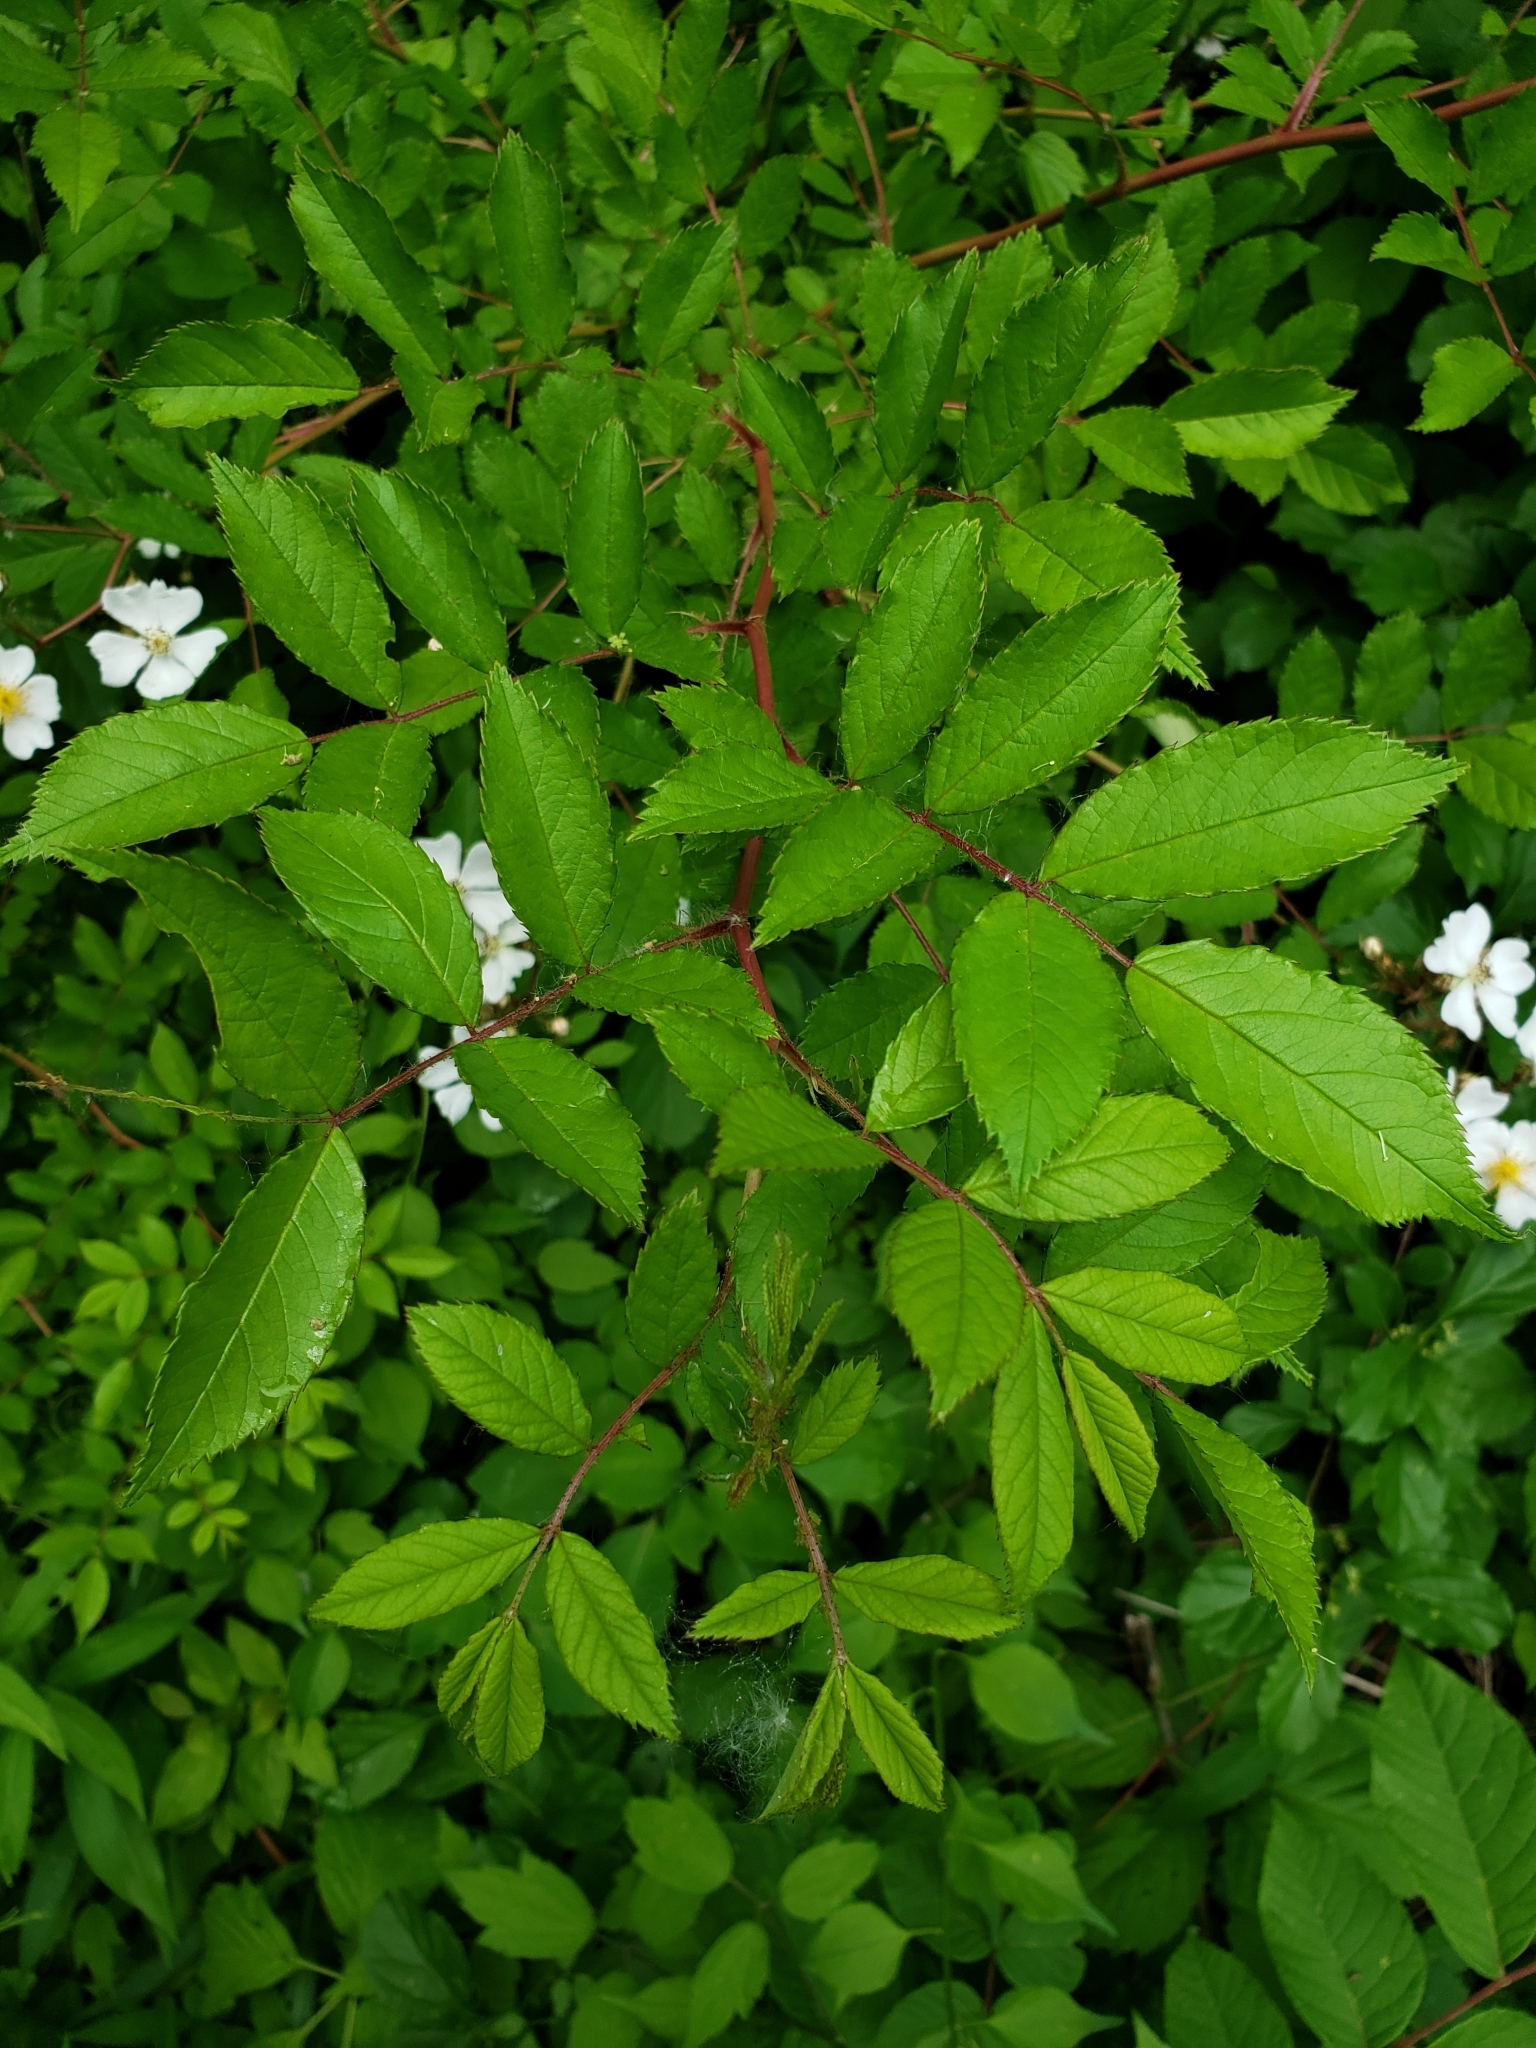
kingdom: Plantae
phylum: Tracheophyta
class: Magnoliopsida
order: Rosales
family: Rosaceae
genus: Rosa
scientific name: Rosa multiflora
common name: Multiflora rose
